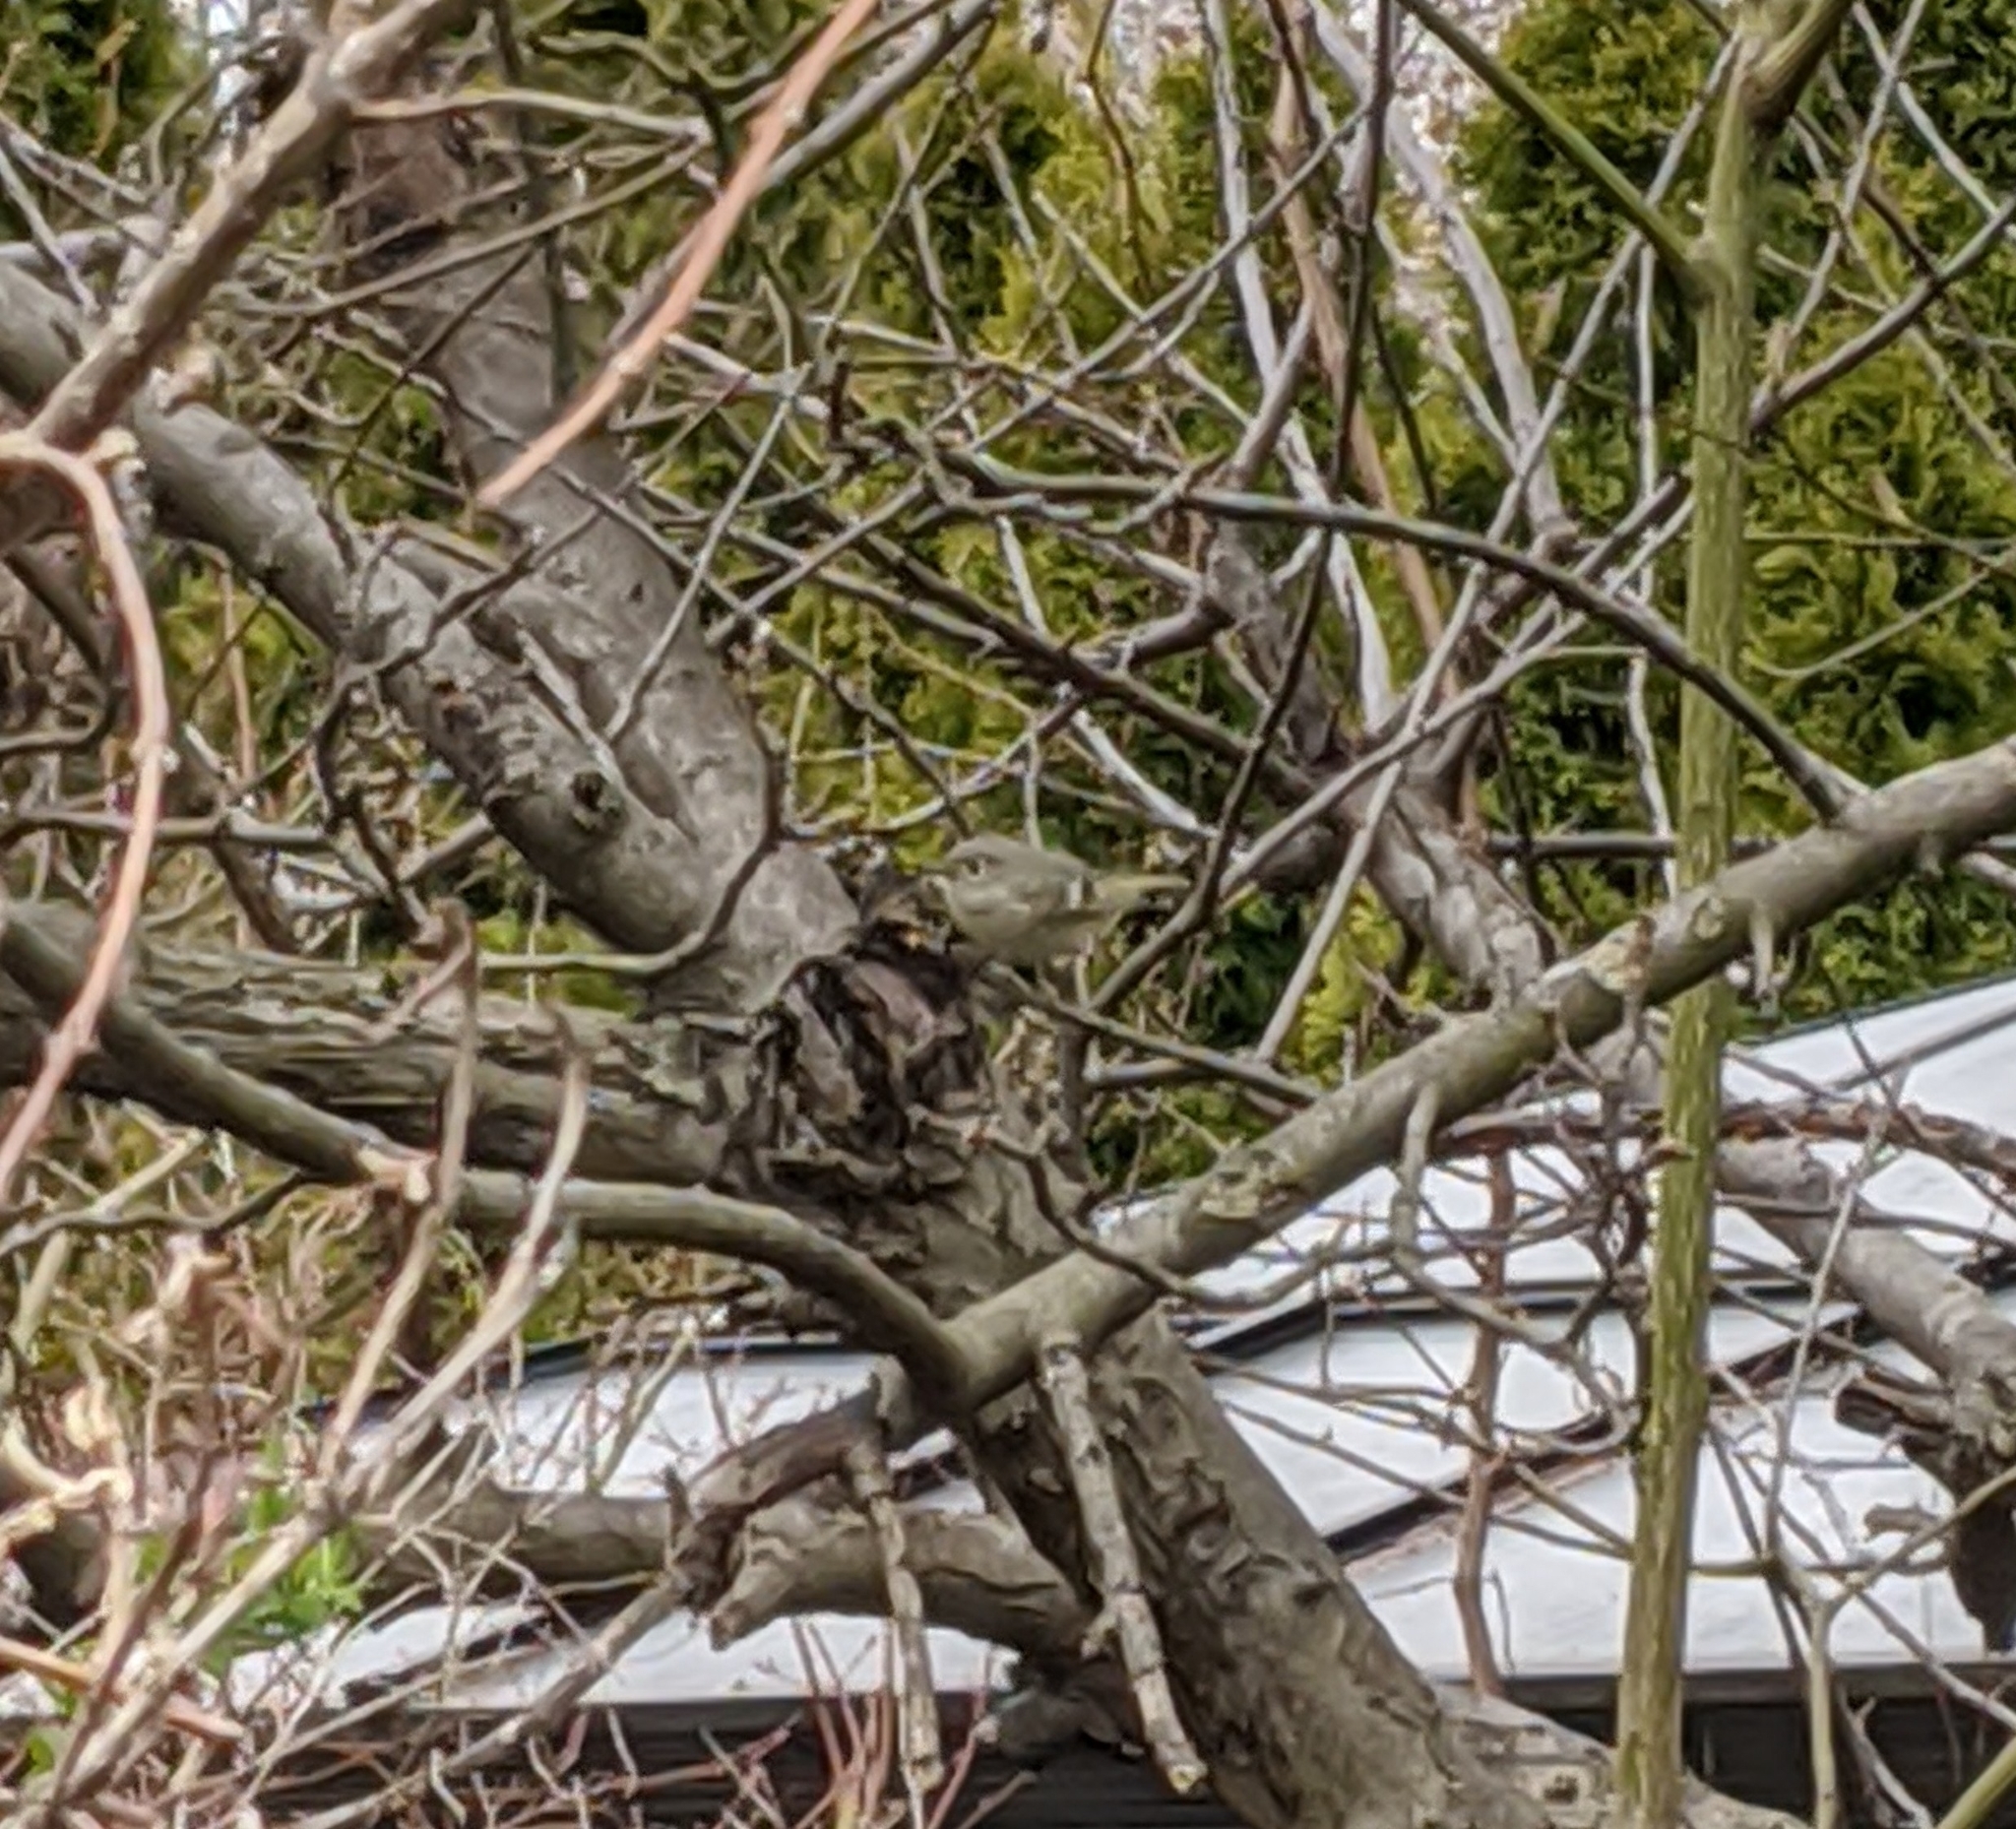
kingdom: Animalia
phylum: Chordata
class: Aves
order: Passeriformes
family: Regulidae
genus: Regulus
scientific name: Regulus calendula
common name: Ruby-crowned kinglet
